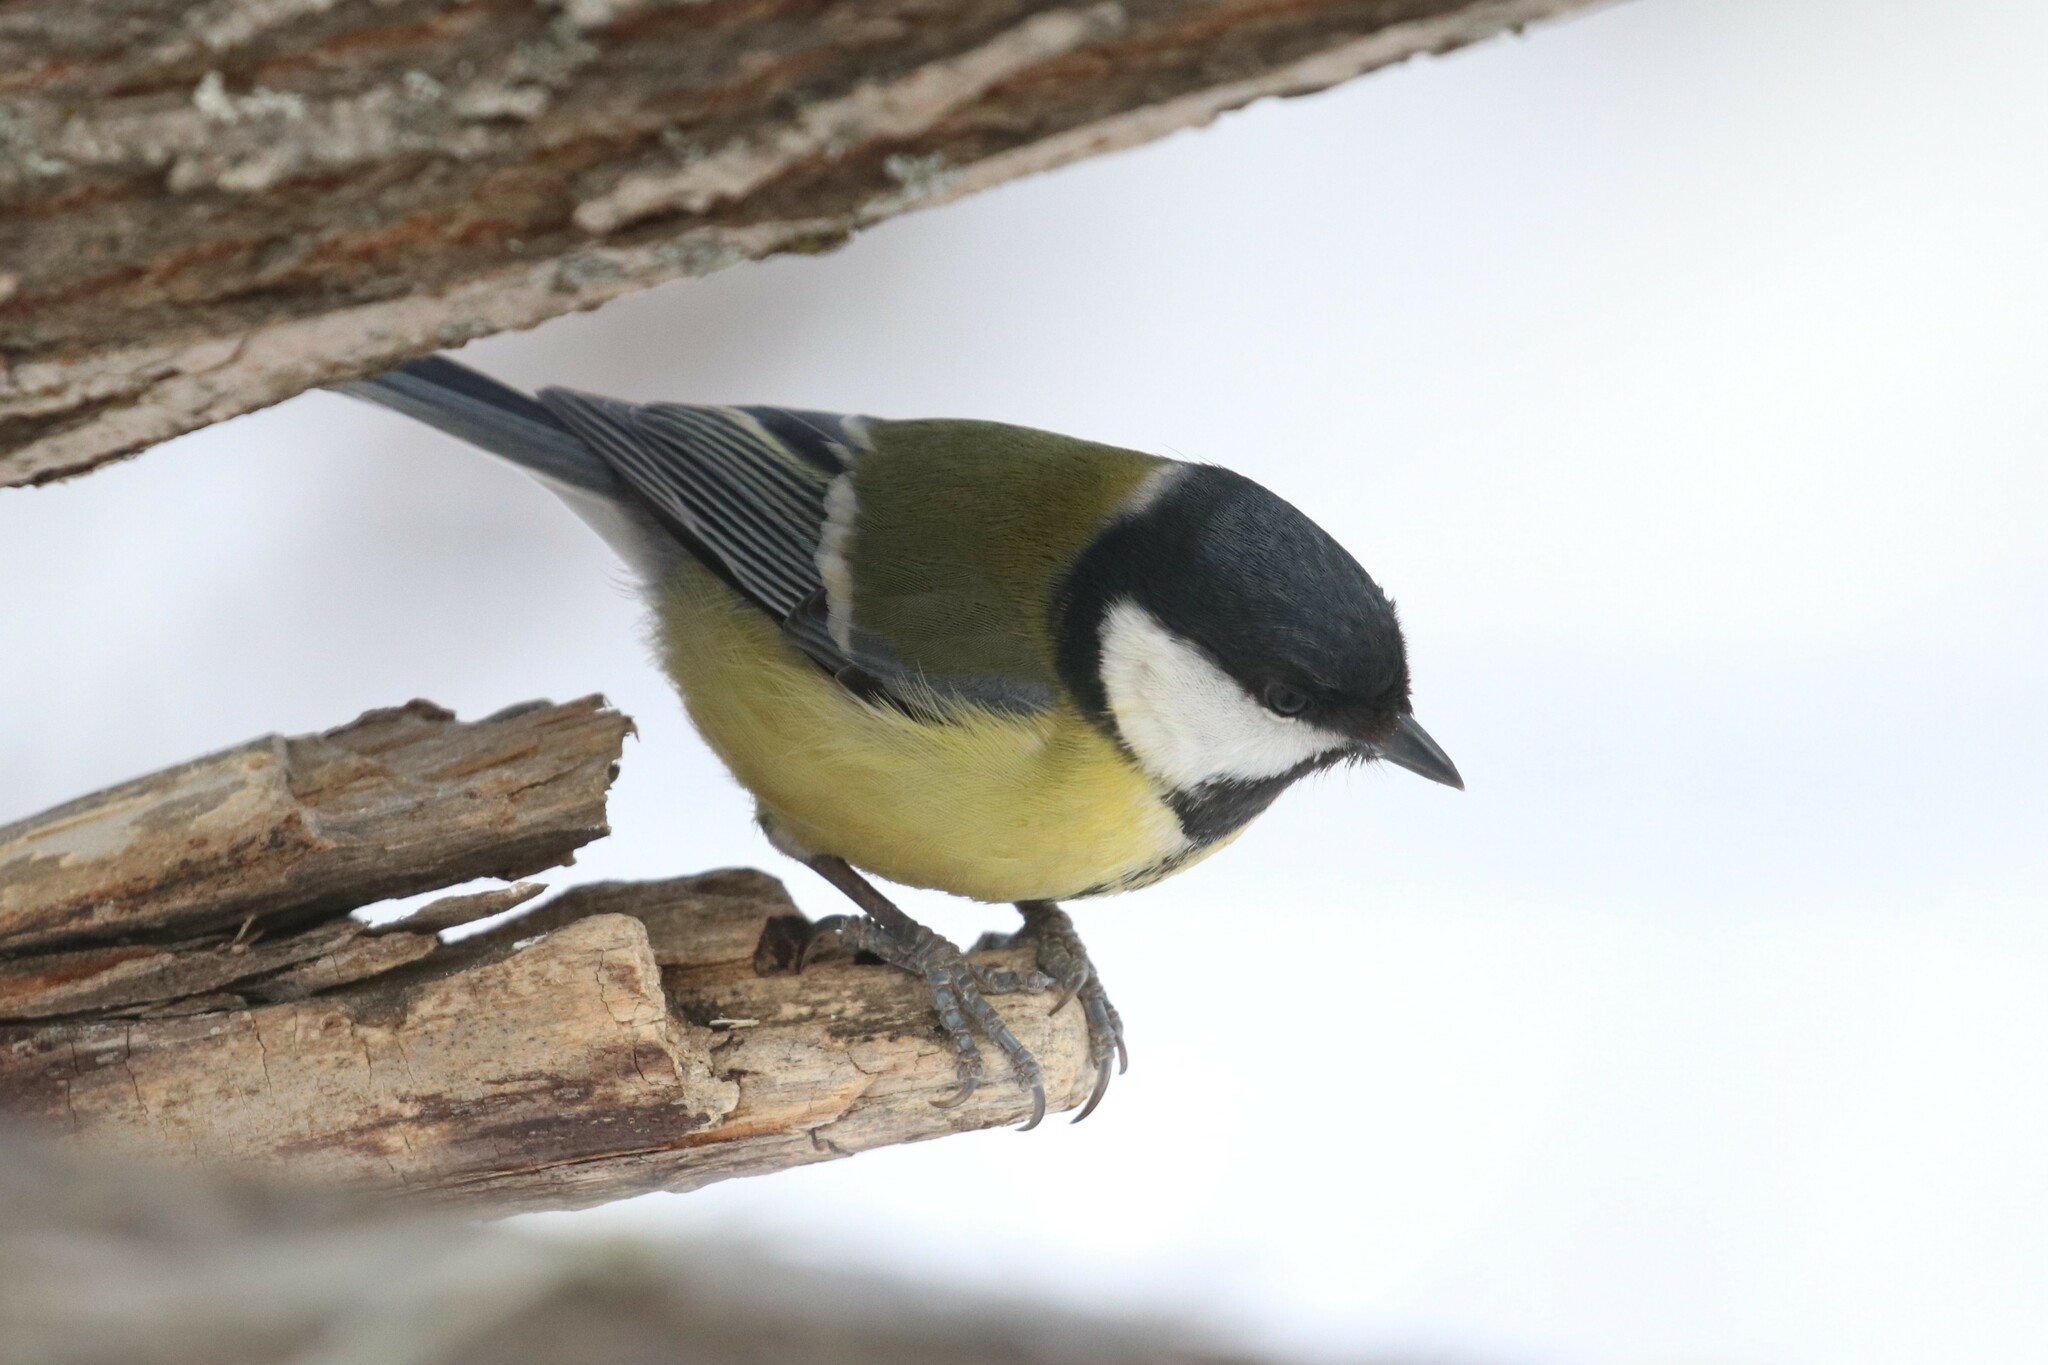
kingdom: Animalia
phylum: Chordata
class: Aves
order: Passeriformes
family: Paridae
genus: Parus
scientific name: Parus major
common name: Great tit
